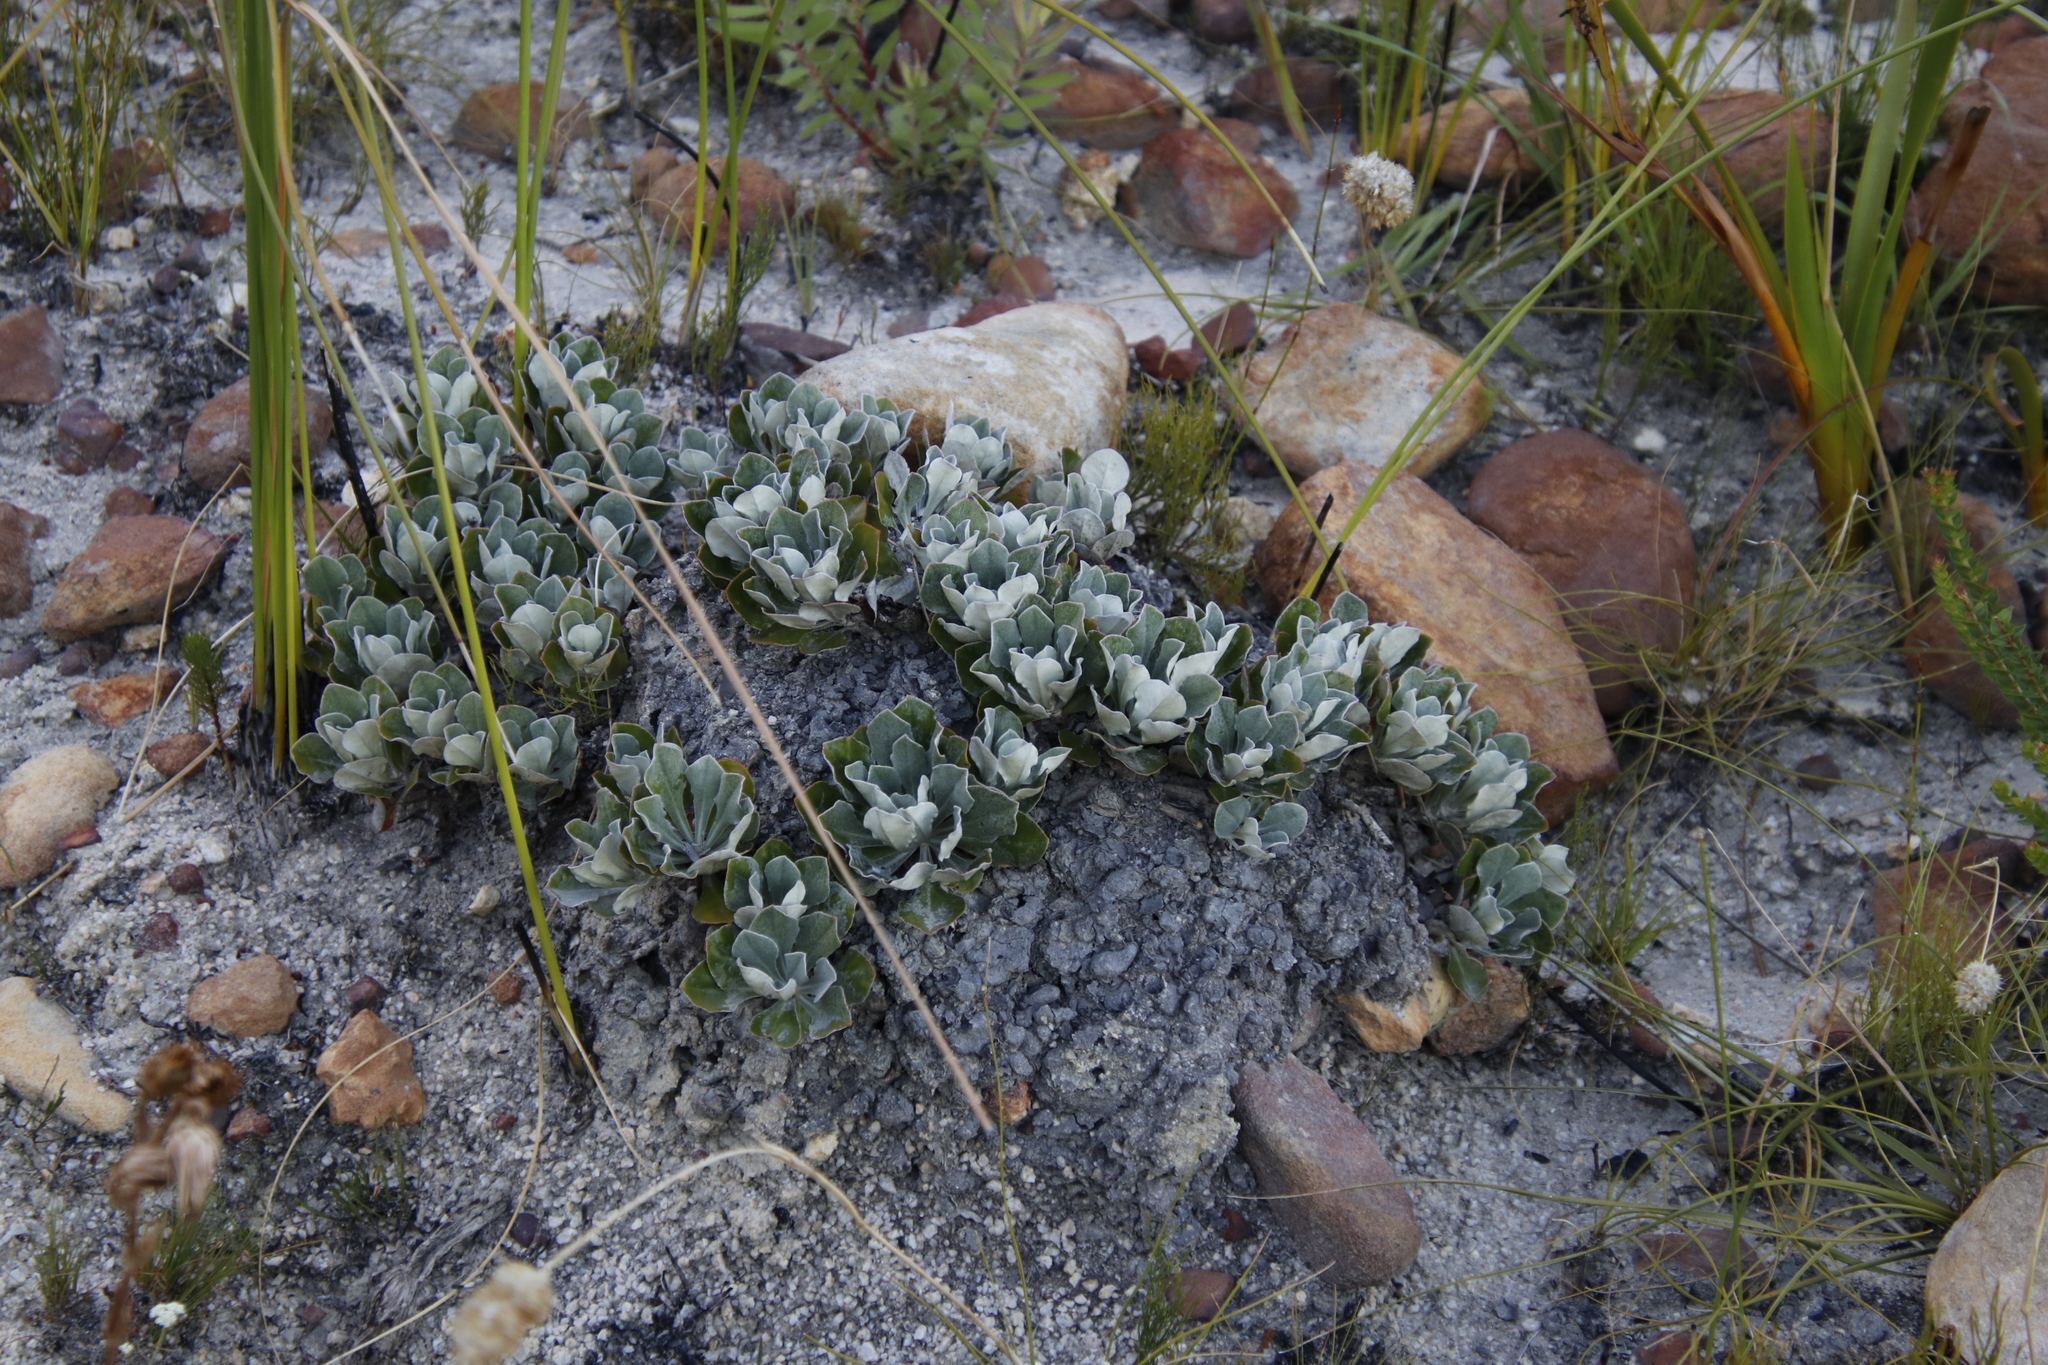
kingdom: Plantae
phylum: Tracheophyta
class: Magnoliopsida
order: Asterales
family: Asteraceae
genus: Osteospermum
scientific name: Osteospermum tomentosum
